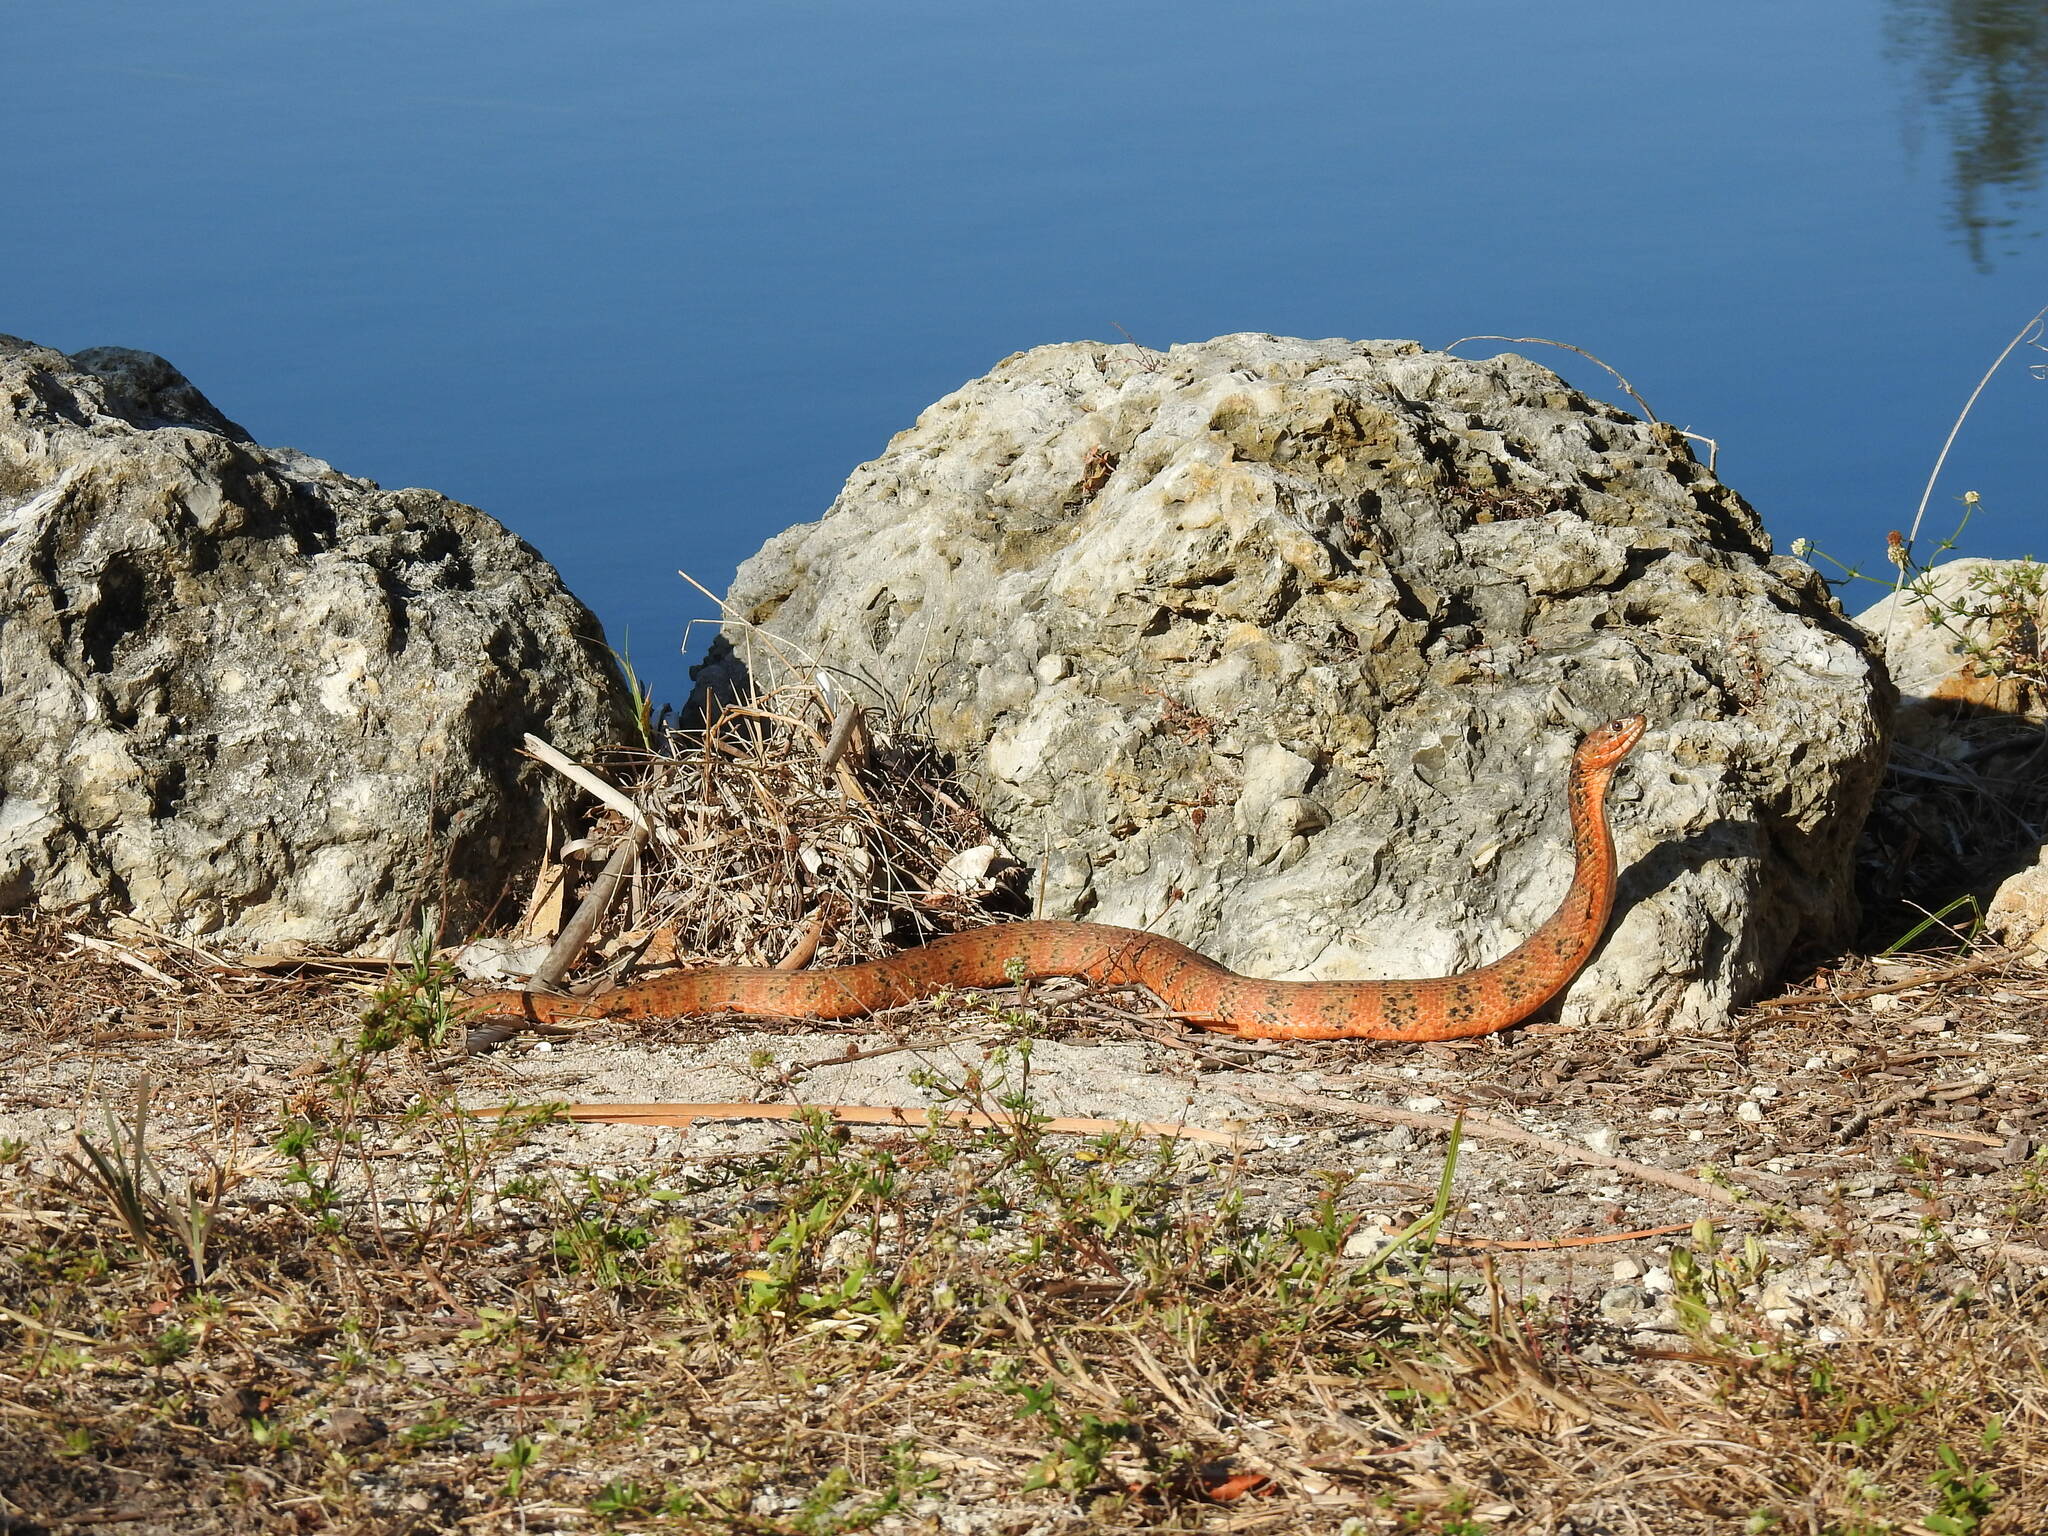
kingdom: Animalia
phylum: Chordata
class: Squamata
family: Colubridae
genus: Nerodia
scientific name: Nerodia fasciata
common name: Southern water snake
